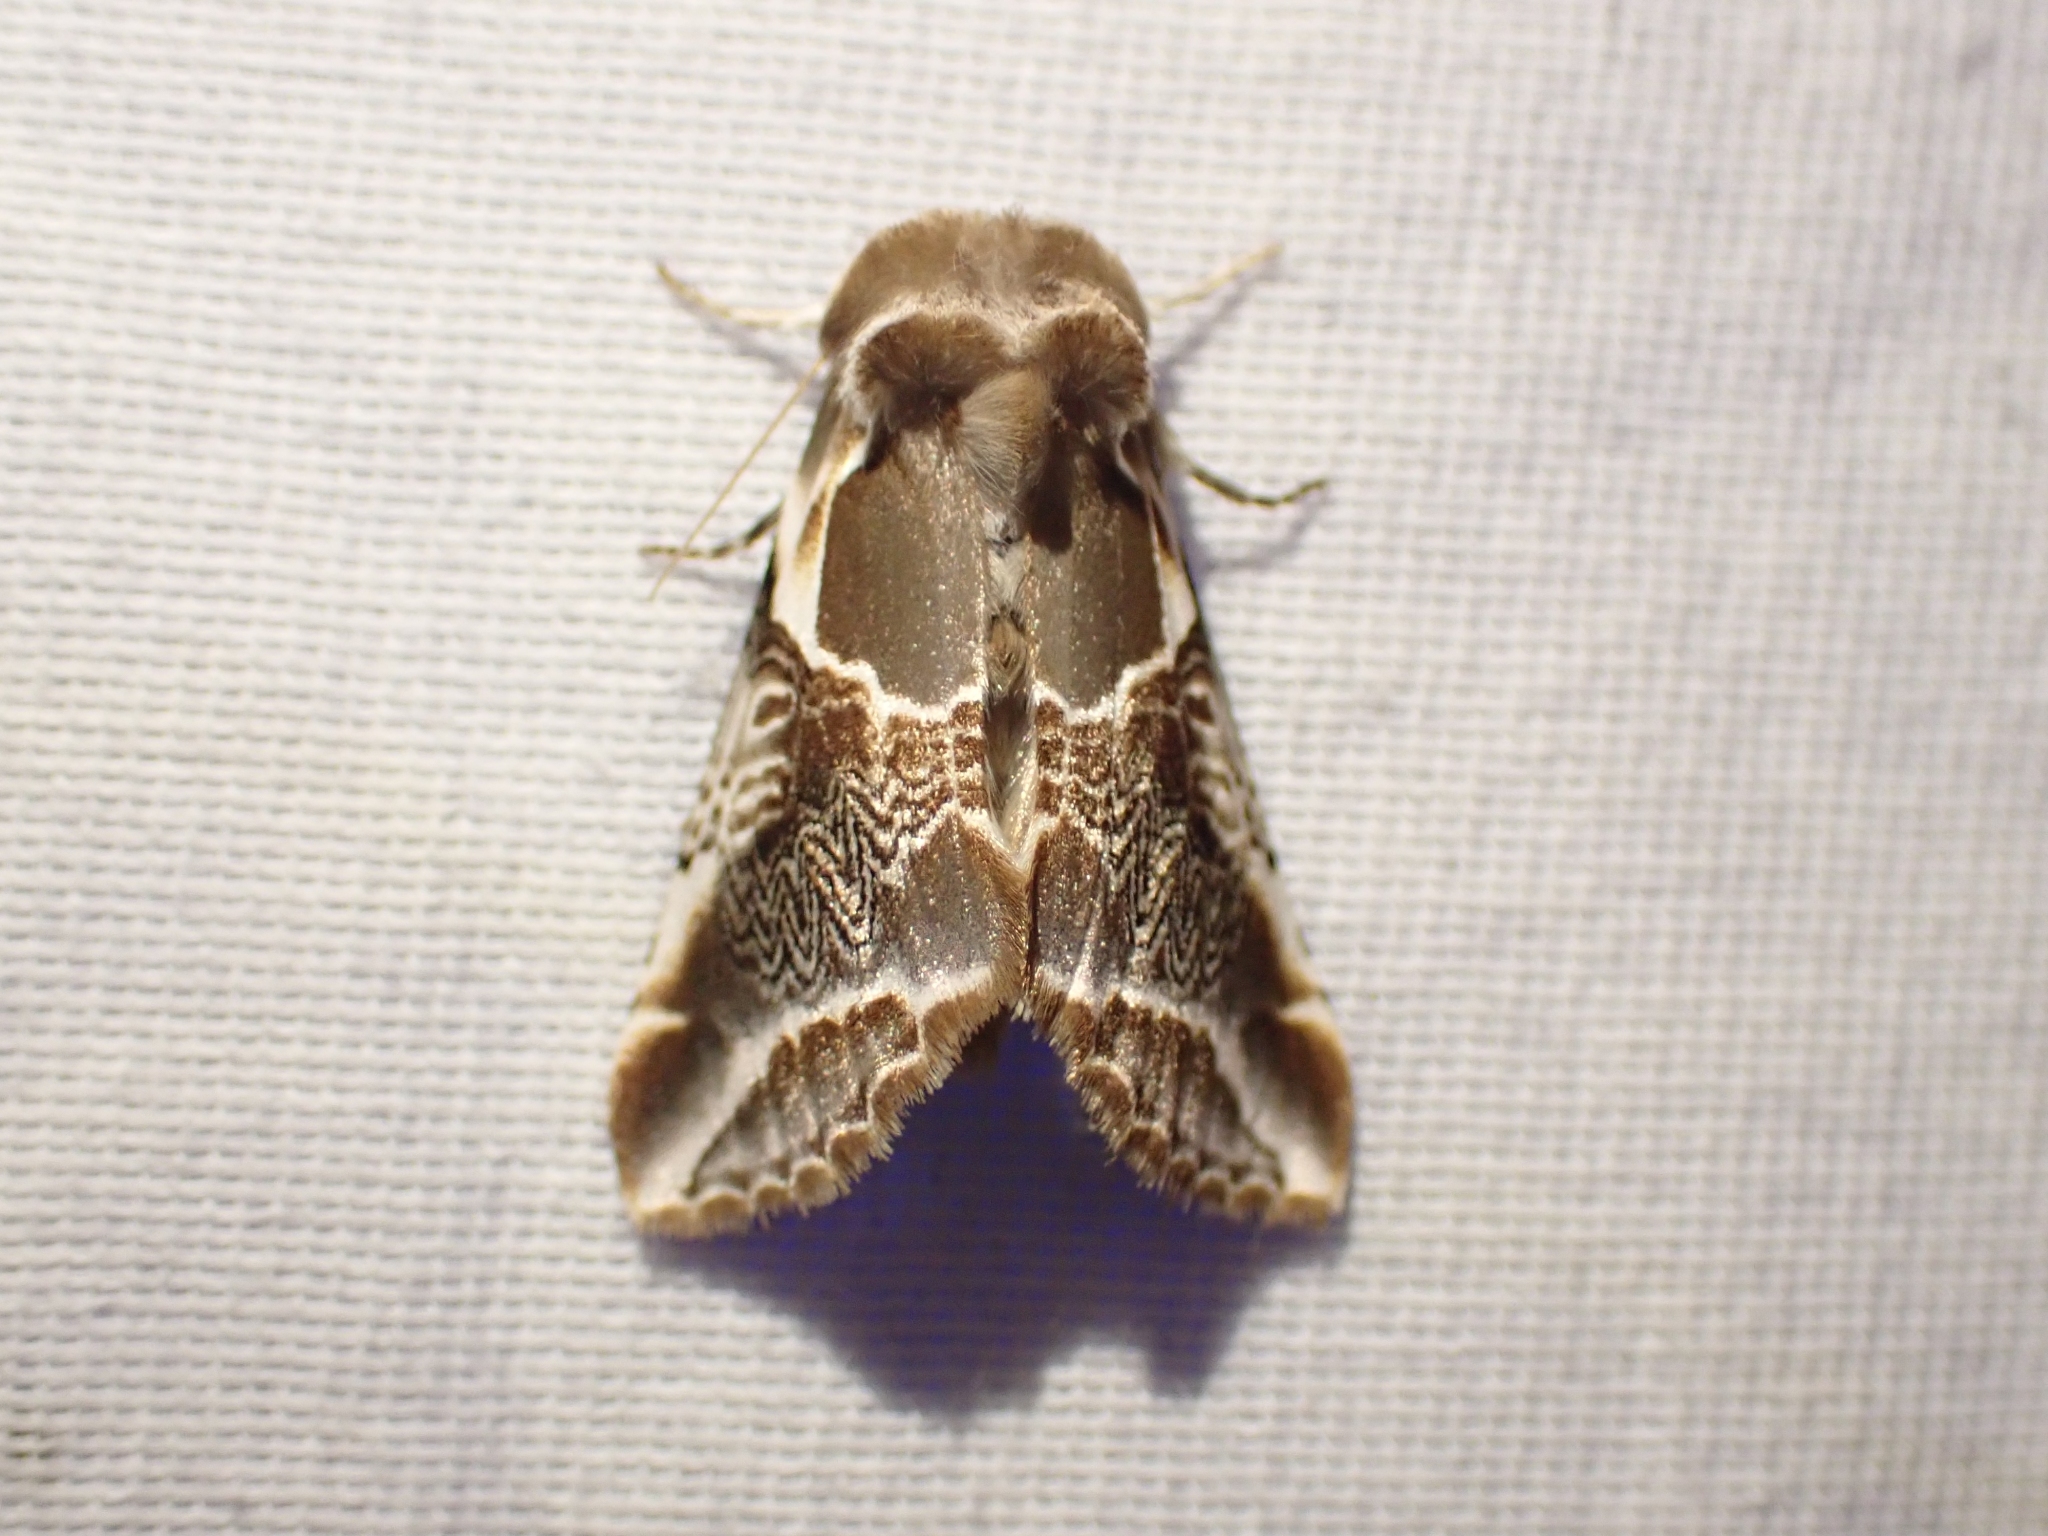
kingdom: Animalia
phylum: Arthropoda
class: Insecta
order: Lepidoptera
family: Drepanidae
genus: Habrosyne
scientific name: Habrosyne scripta
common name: Lettered habrosyne moth
